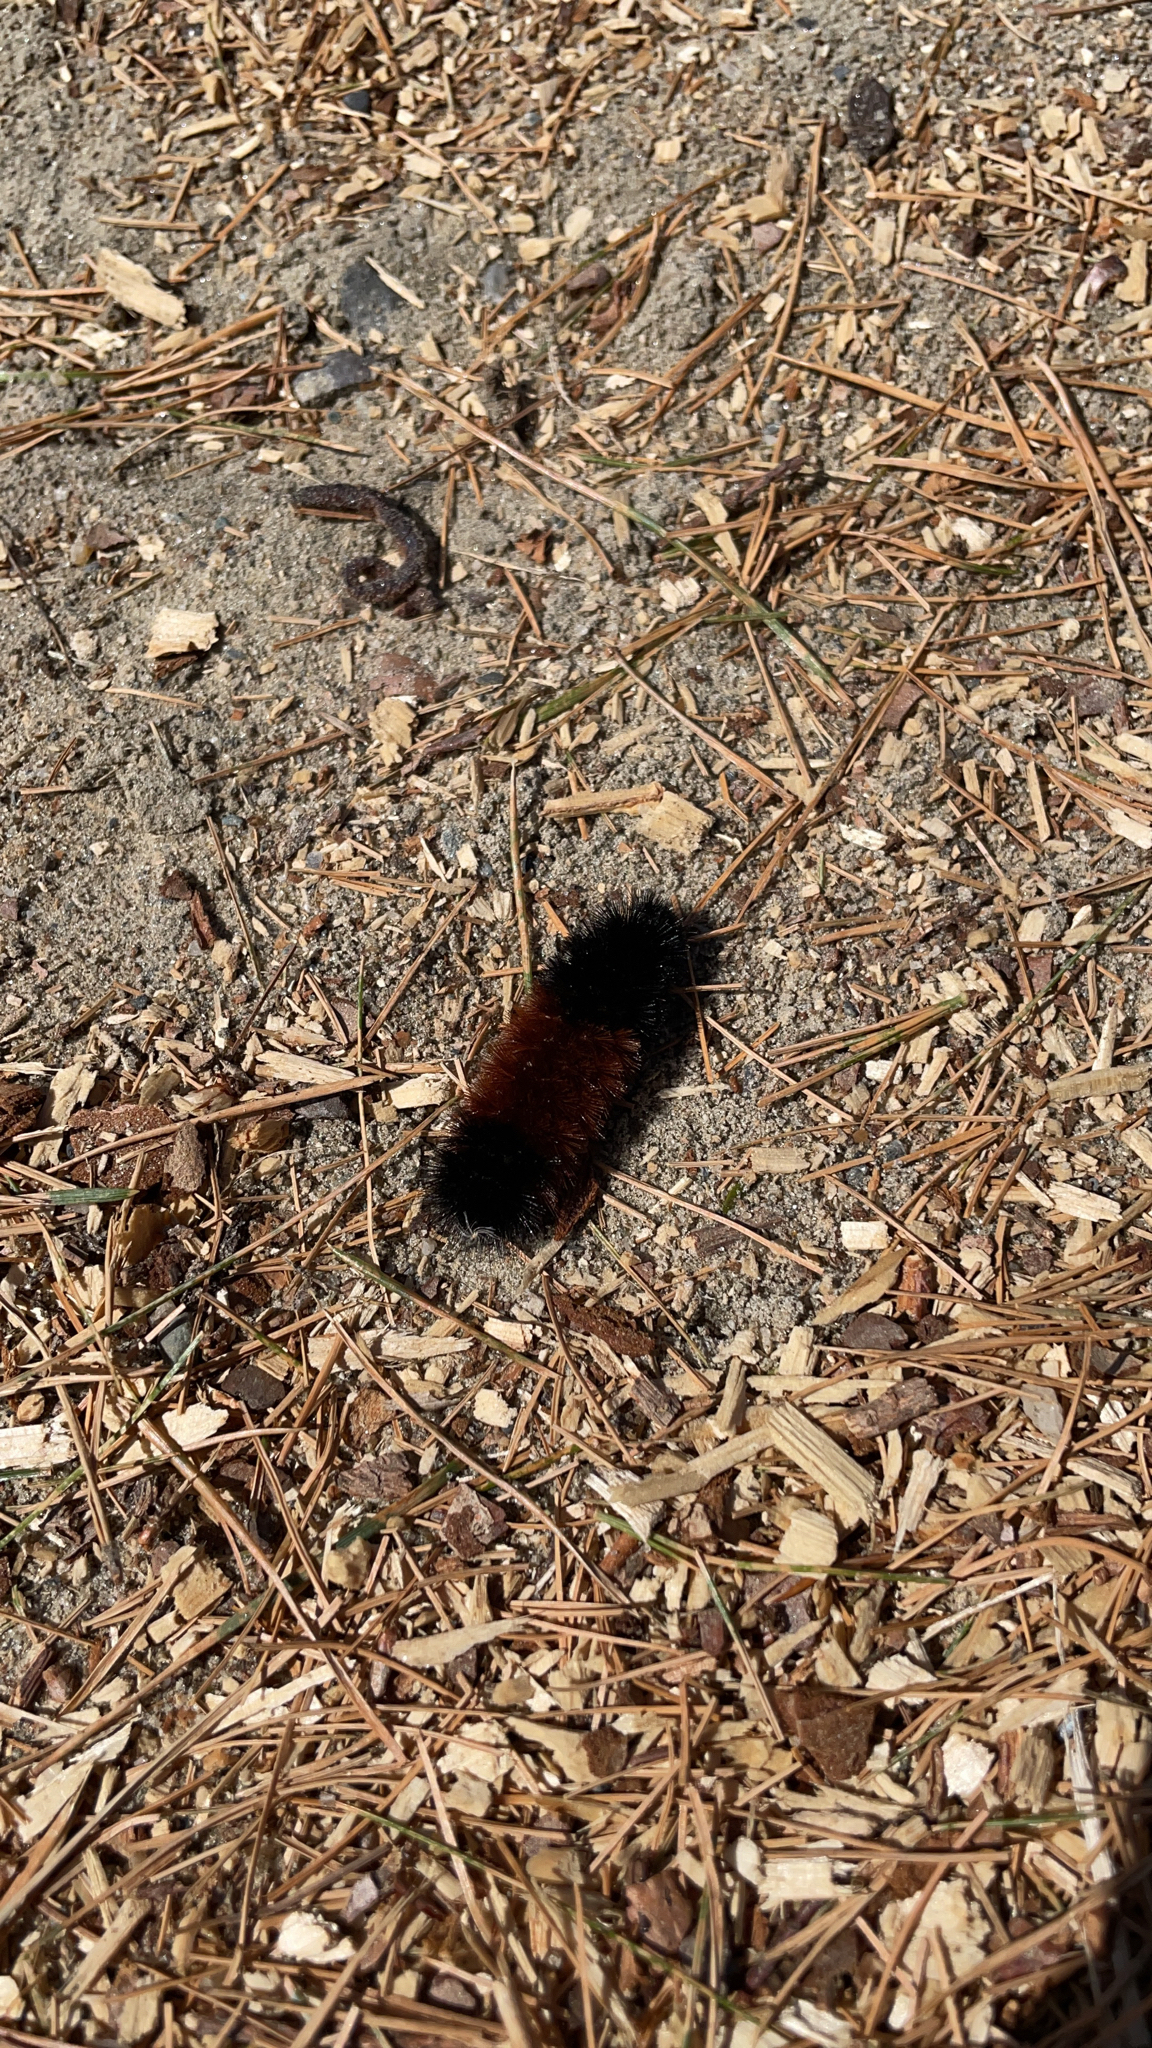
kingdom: Animalia
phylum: Arthropoda
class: Insecta
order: Lepidoptera
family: Erebidae
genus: Pyrrharctia
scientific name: Pyrrharctia isabella
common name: Isabella tiger moth
